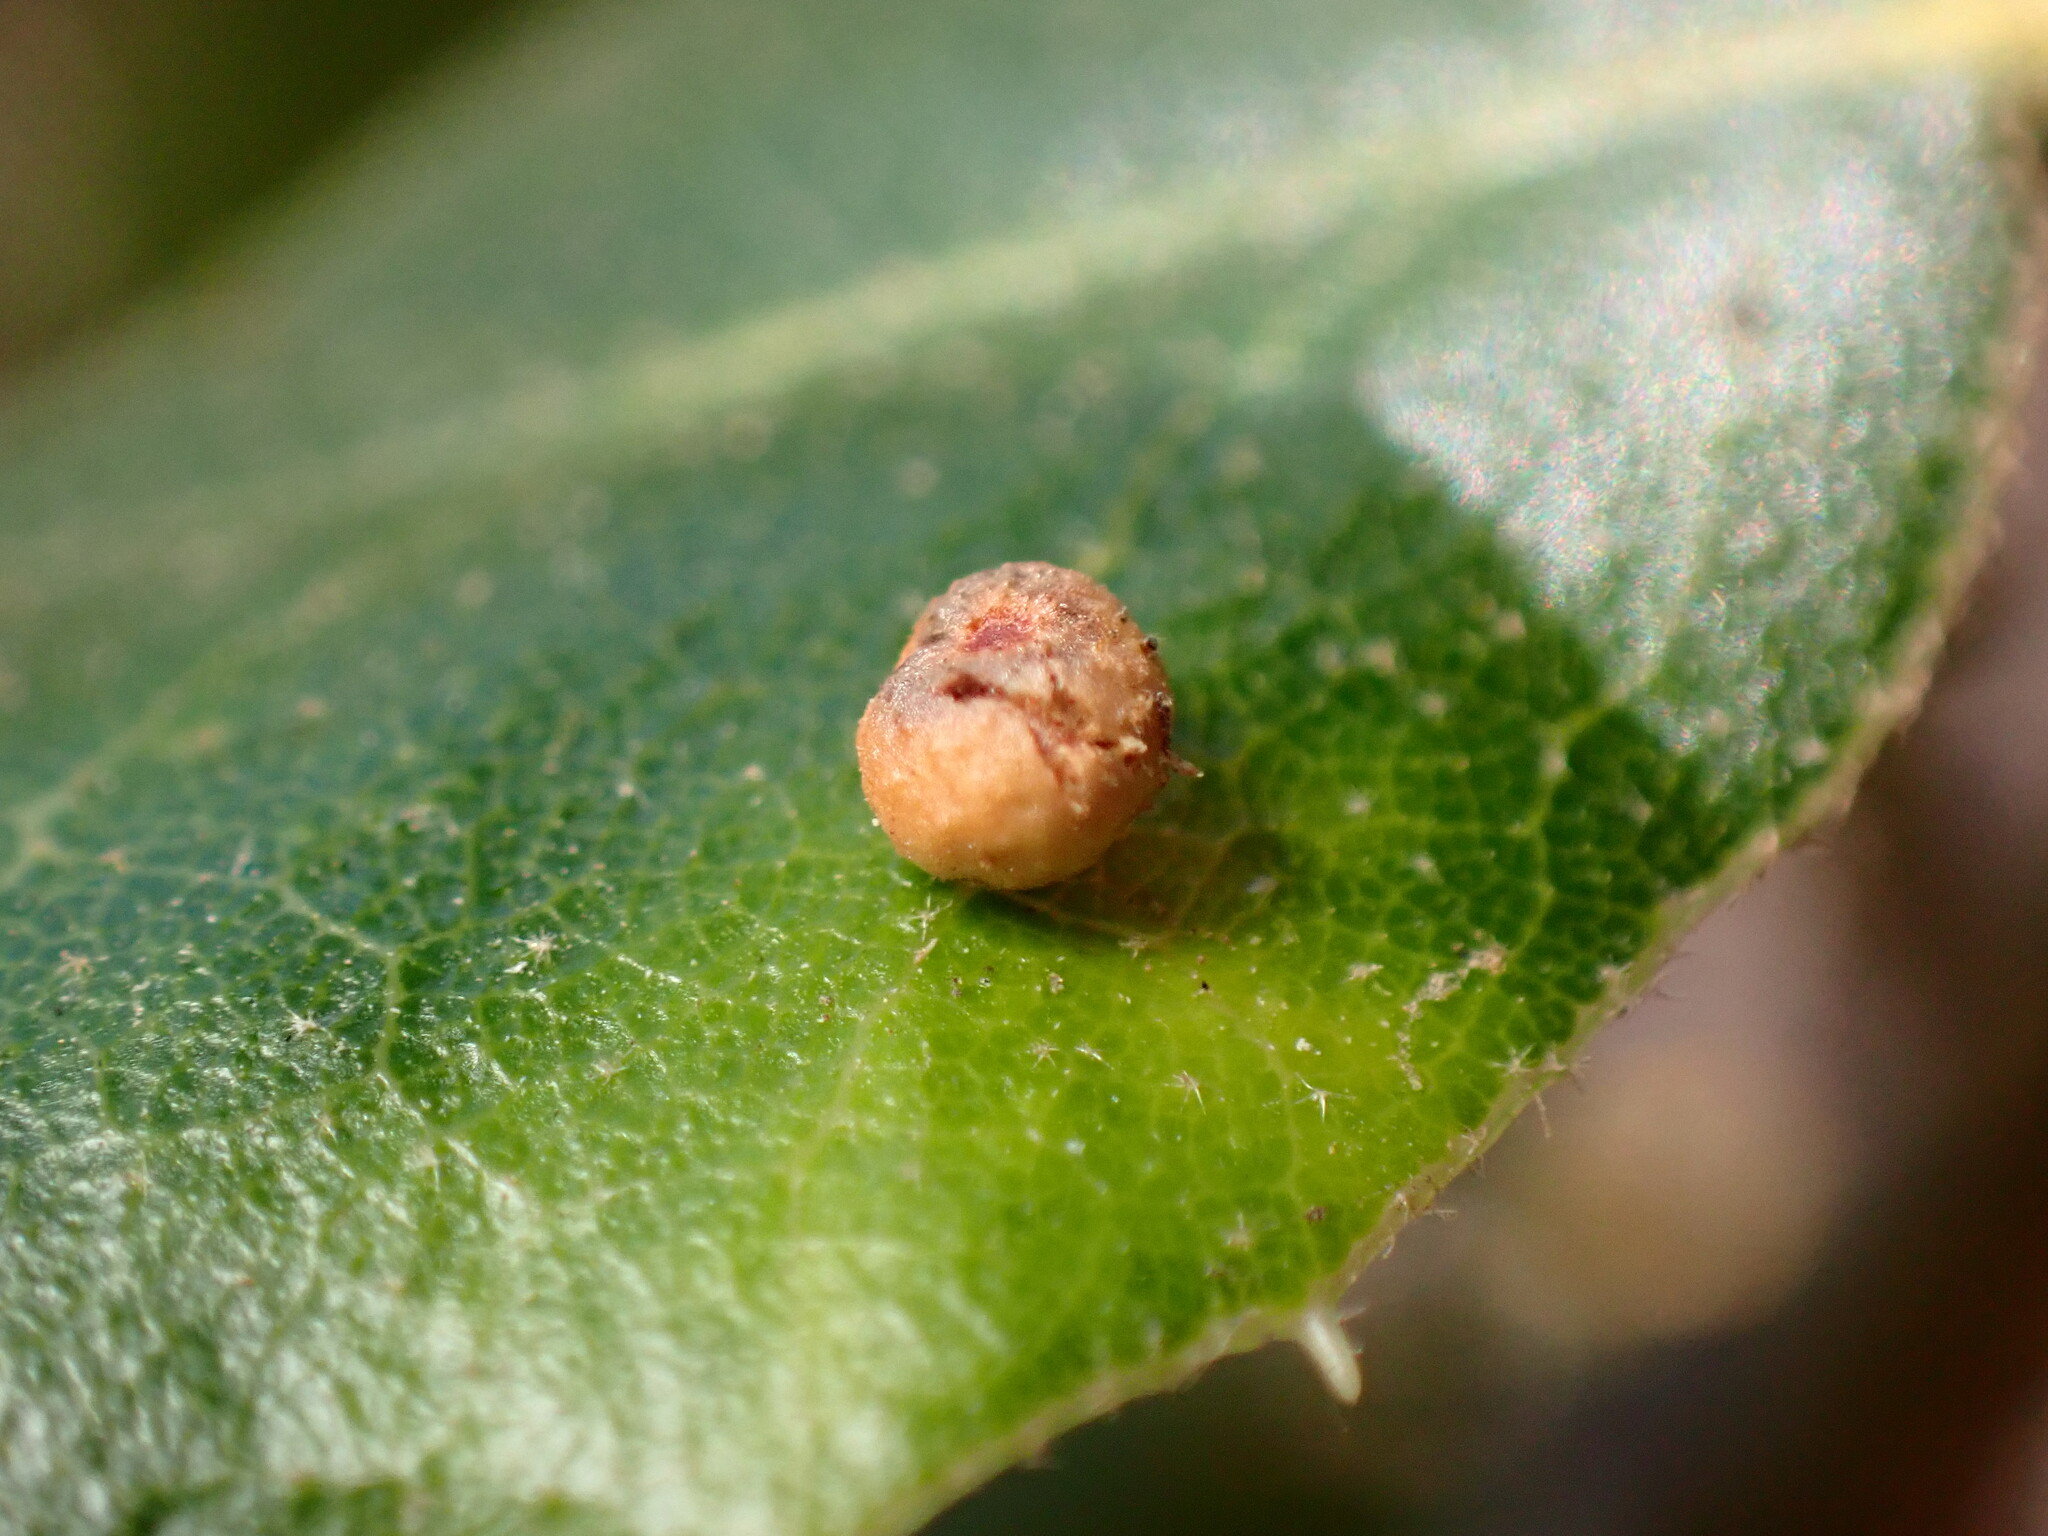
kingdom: Animalia
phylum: Arthropoda
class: Insecta
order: Hymenoptera
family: Cynipidae
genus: Dryocosmus
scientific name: Dryocosmus
